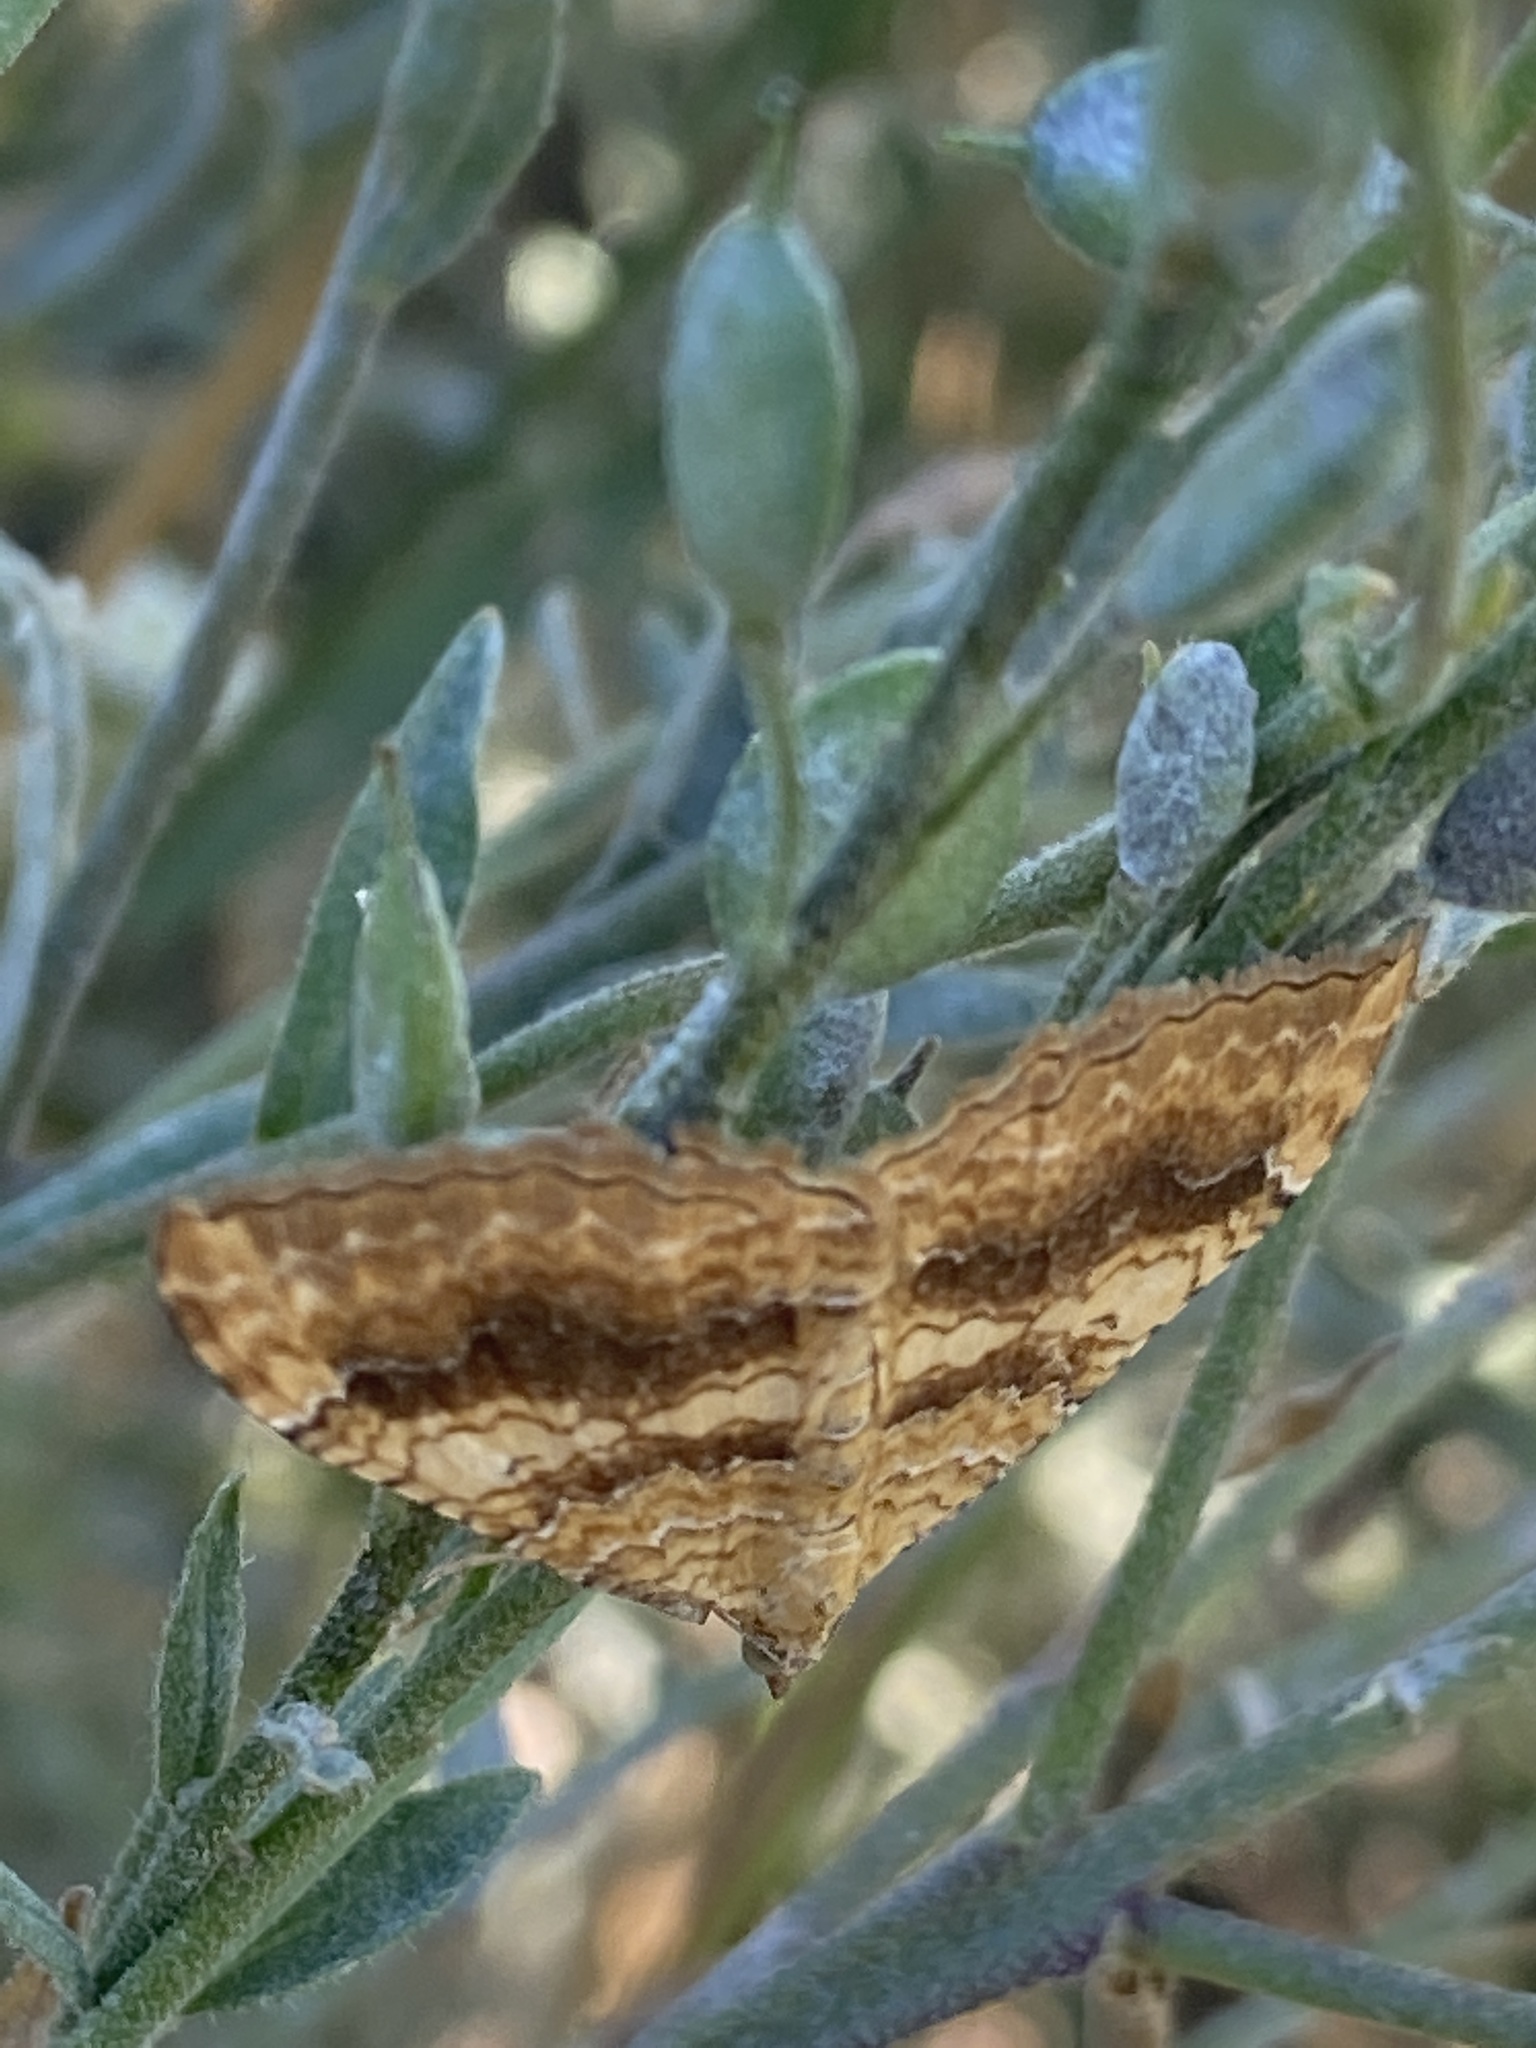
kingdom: Animalia
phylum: Arthropoda
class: Insecta
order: Lepidoptera
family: Geometridae
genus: Camptogramma
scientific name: Camptogramma bilineata
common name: Yellow shell
